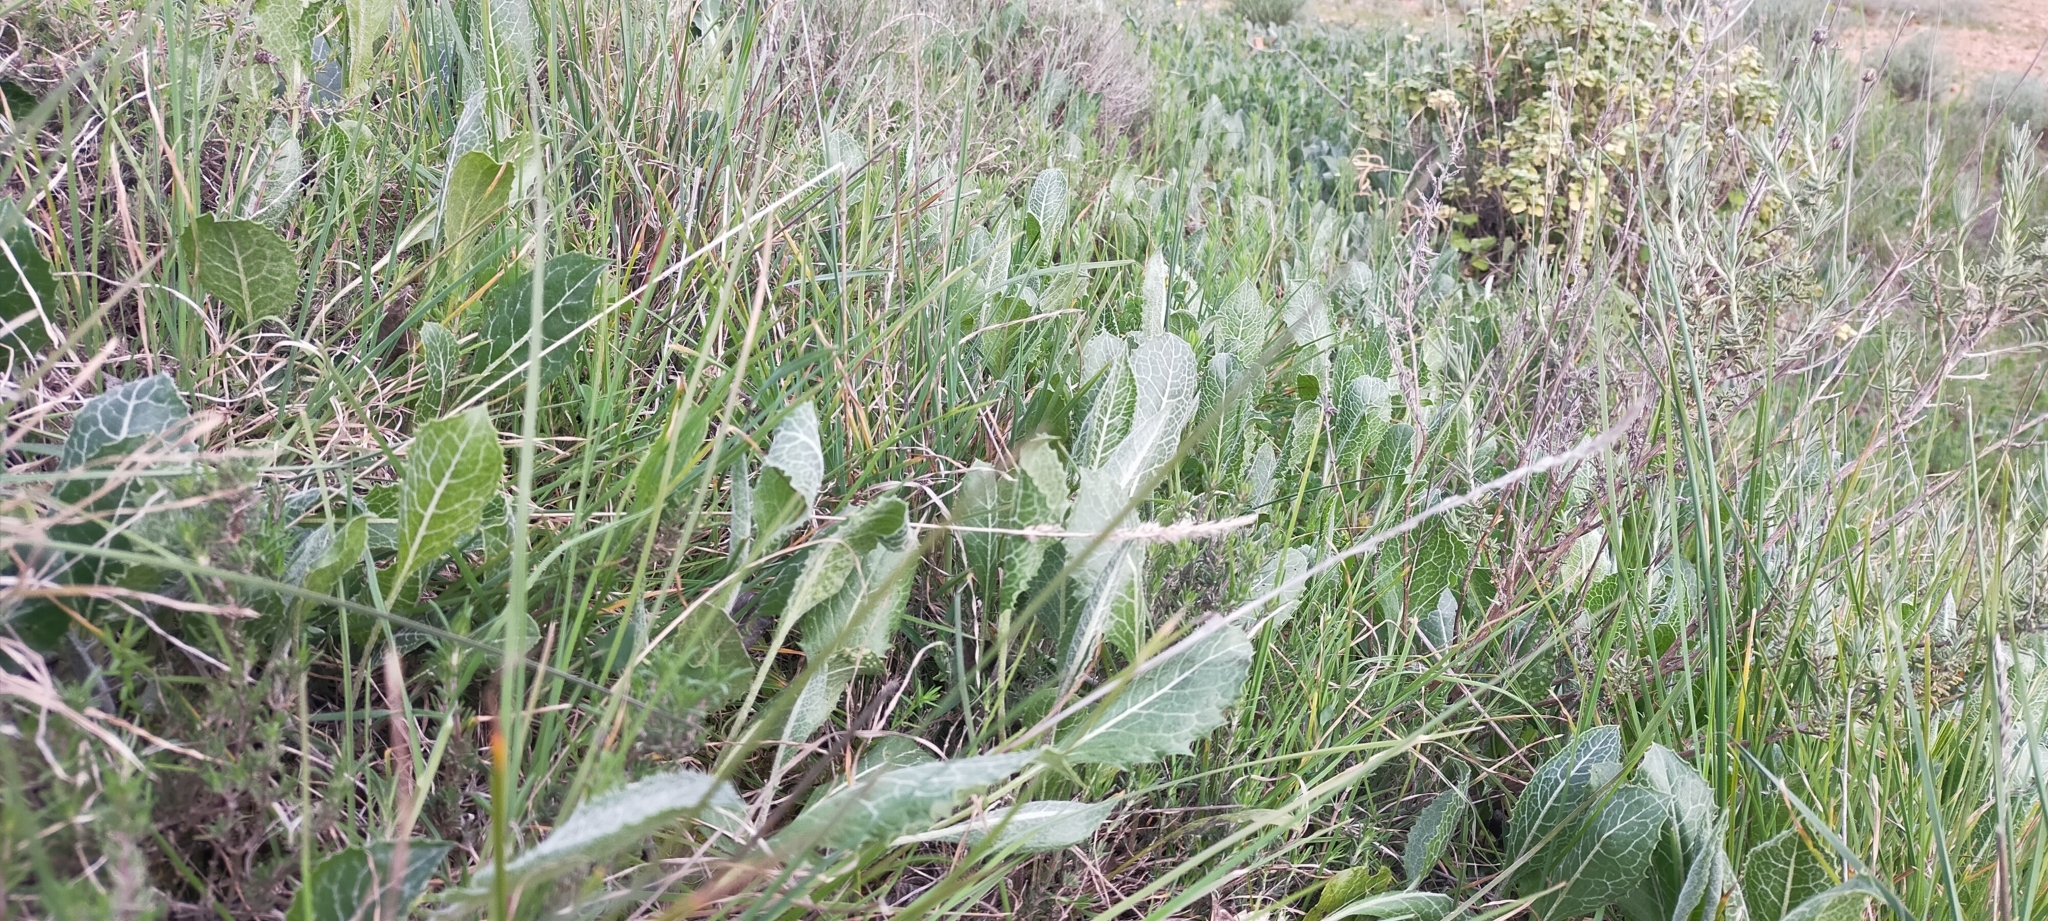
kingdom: Plantae
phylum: Tracheophyta
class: Magnoliopsida
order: Asterales
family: Asteraceae
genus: Klasea
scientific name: Klasea pinnatifida
